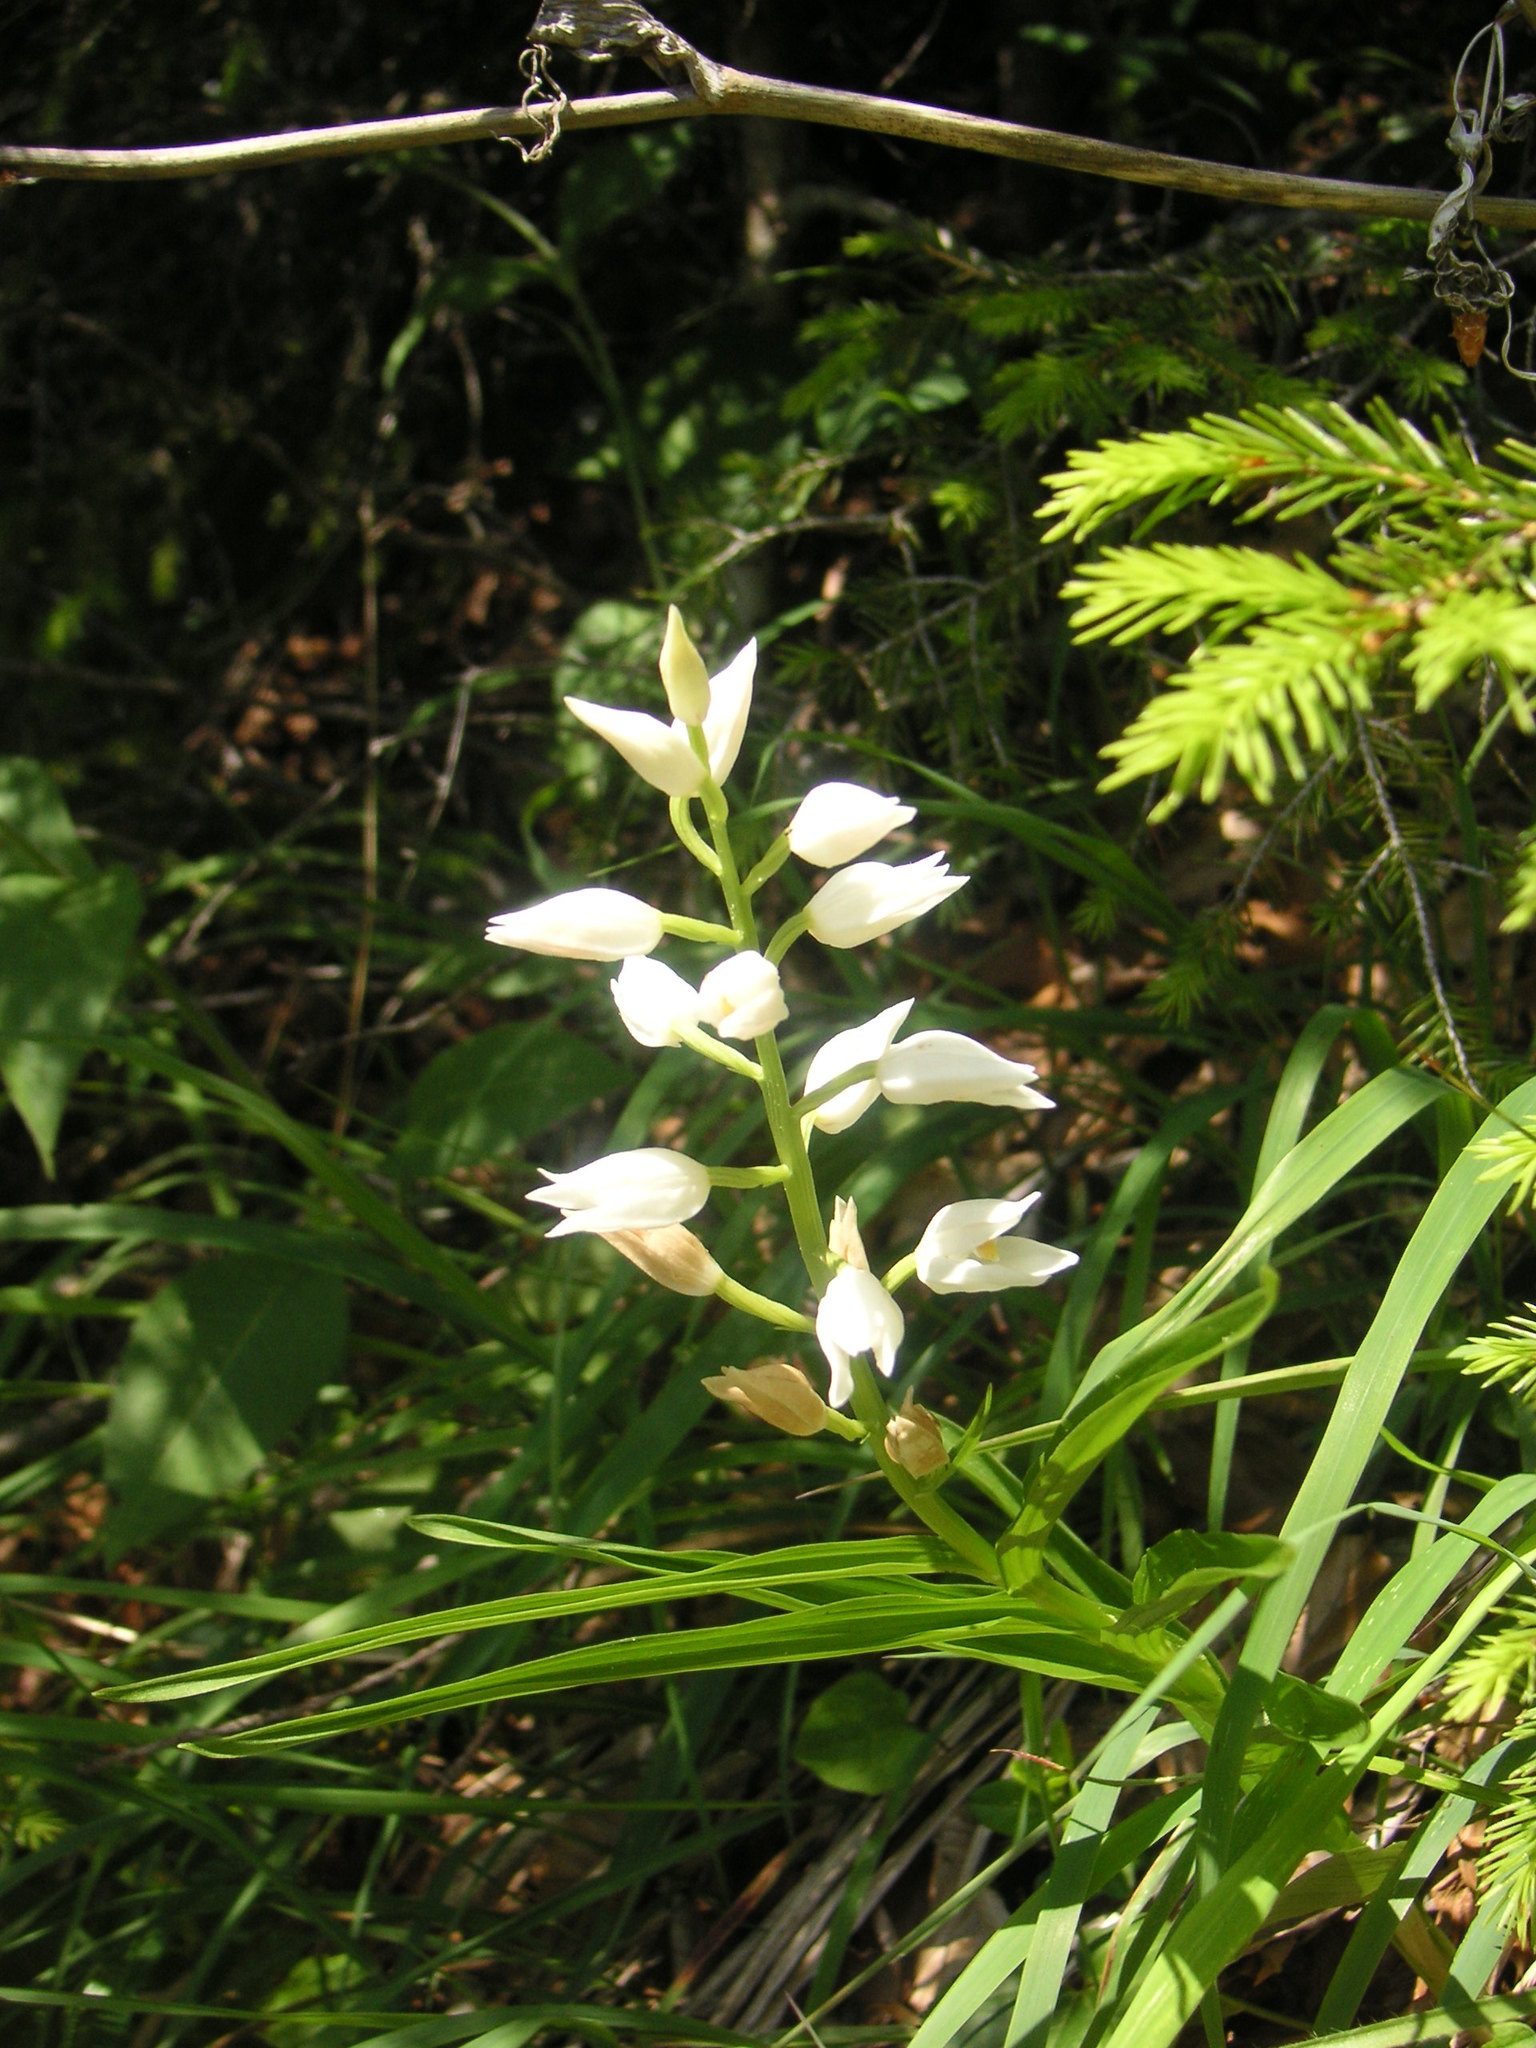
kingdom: Plantae
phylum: Tracheophyta
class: Liliopsida
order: Asparagales
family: Orchidaceae
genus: Cephalanthera
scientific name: Cephalanthera longifolia
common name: Narrow-leaved helleborine
